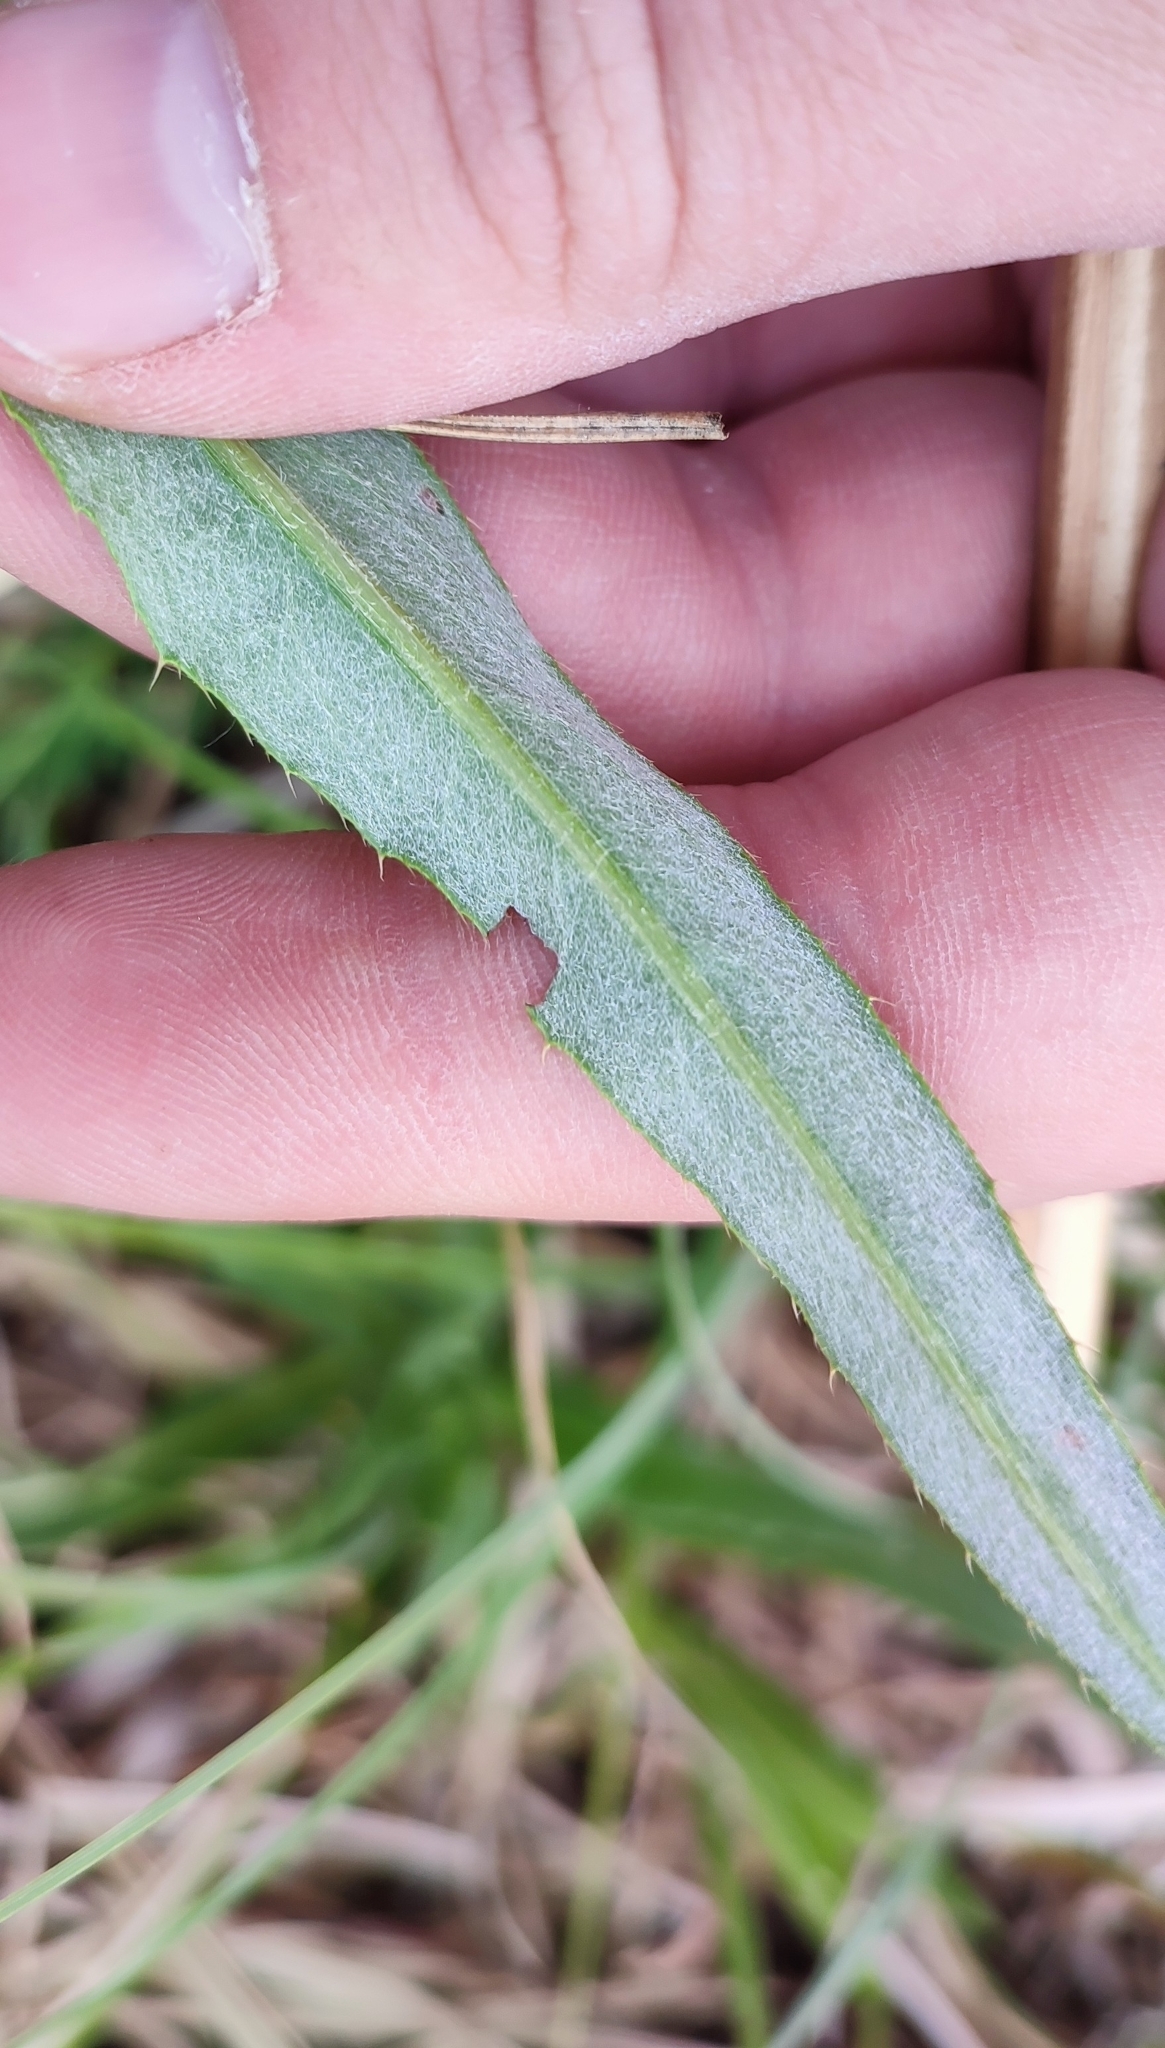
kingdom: Plantae
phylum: Tracheophyta
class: Magnoliopsida
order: Asterales
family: Asteraceae
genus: Cirsium
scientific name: Cirsium arvense
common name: Creeping thistle
